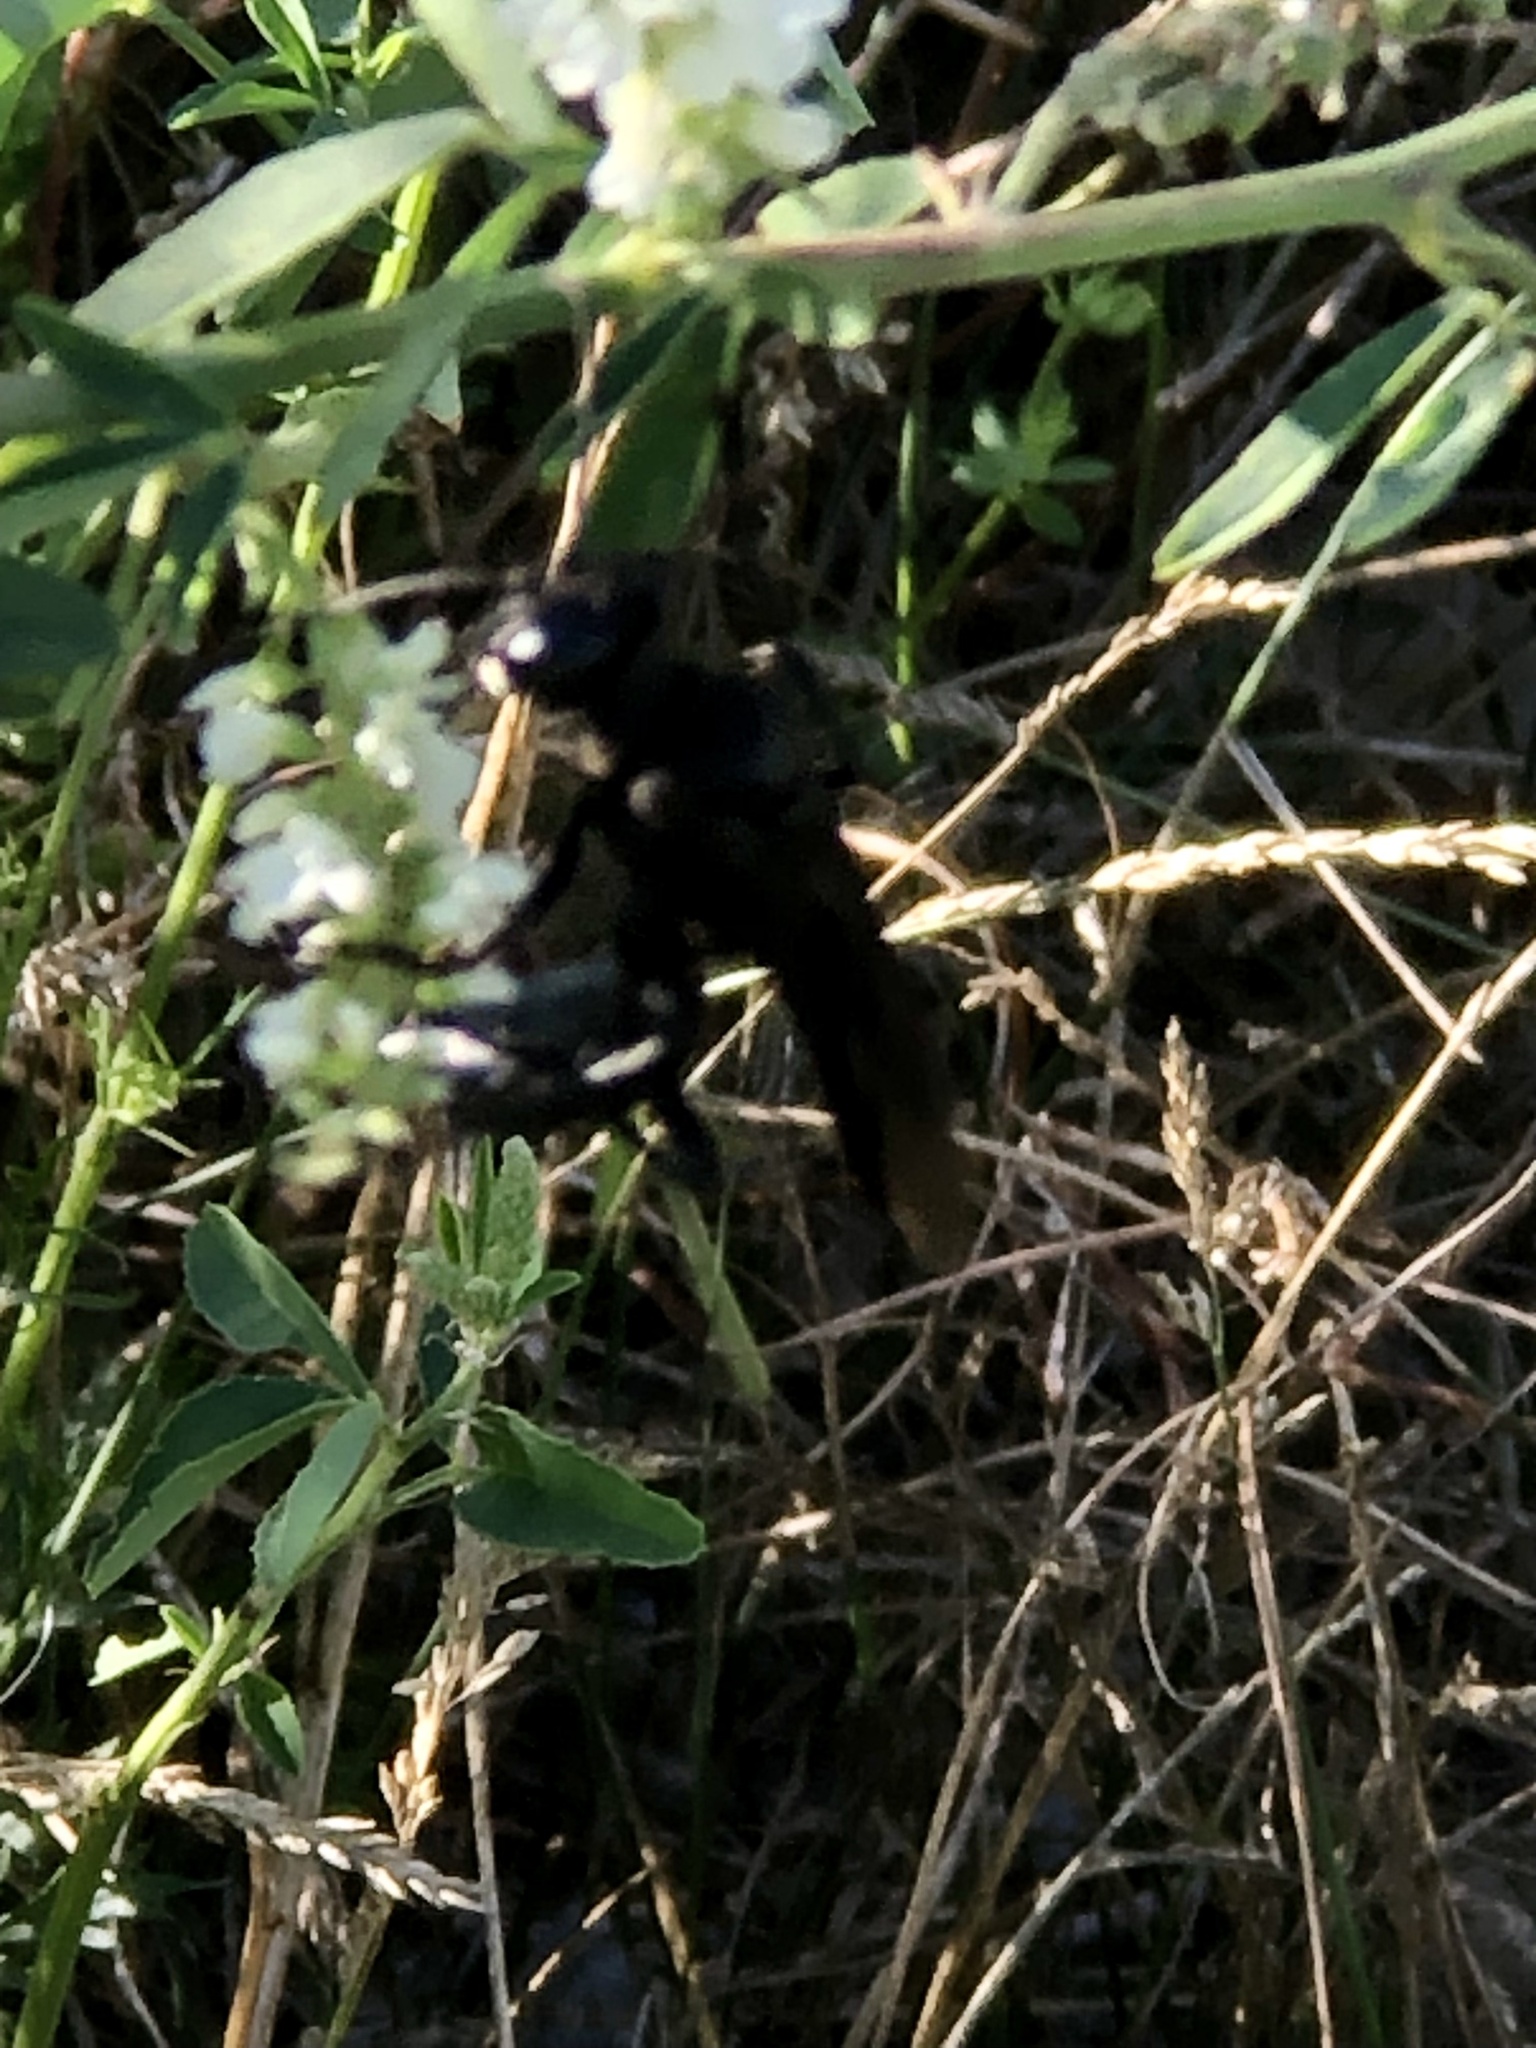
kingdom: Animalia
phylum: Arthropoda
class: Insecta
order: Hymenoptera
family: Sphecidae
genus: Sphex
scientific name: Sphex pensylvanicus
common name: Great black digger wasp
